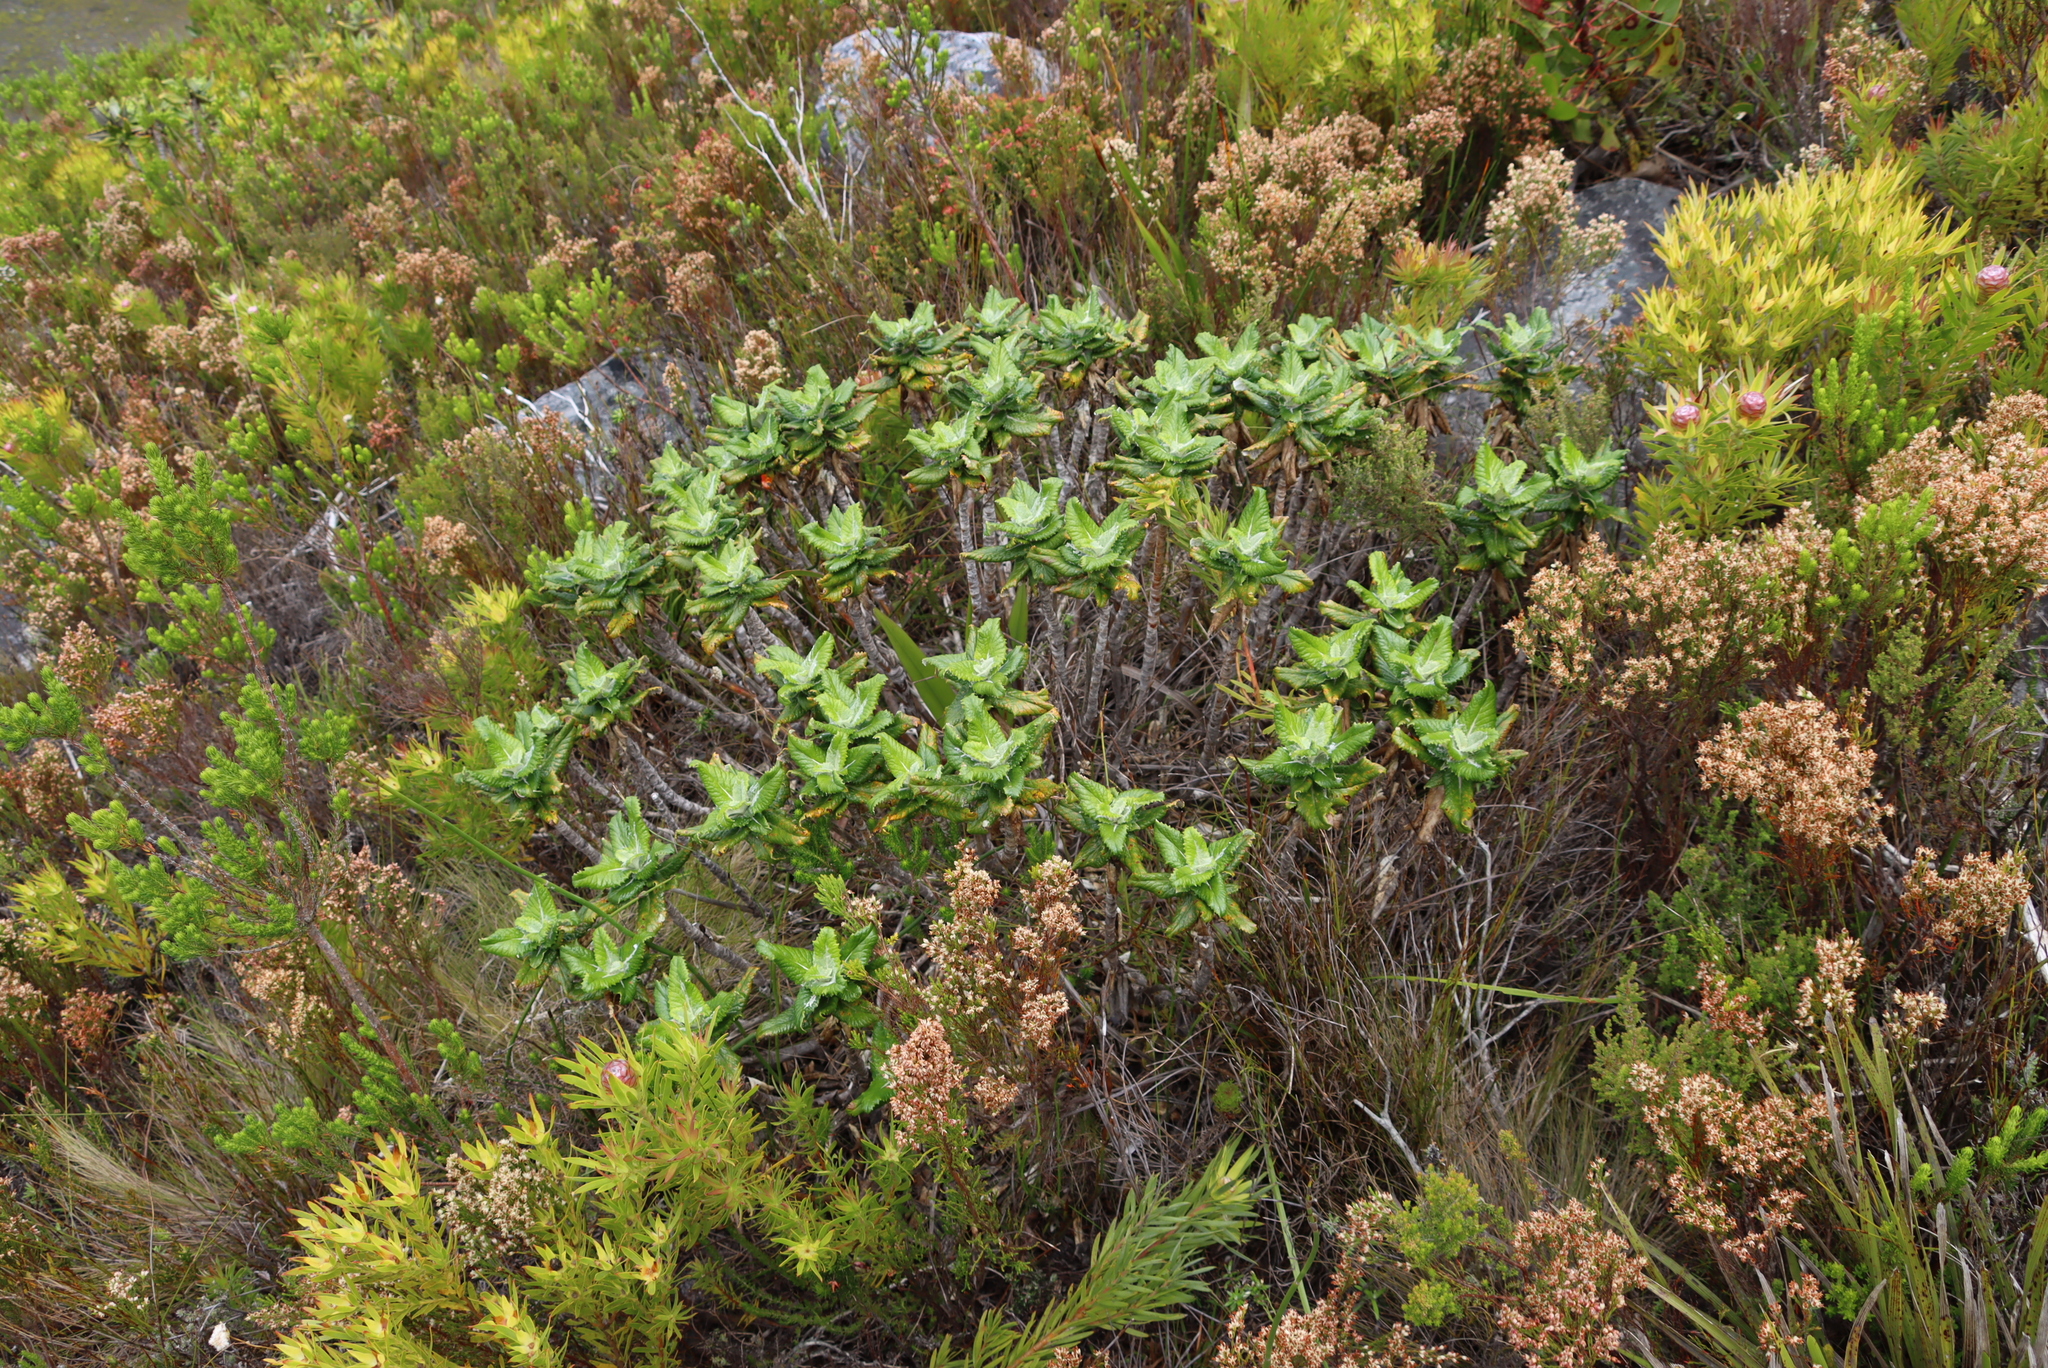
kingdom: Plantae
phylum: Tracheophyta
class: Magnoliopsida
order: Apiales
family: Apiaceae
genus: Hermas
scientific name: Hermas villosa
